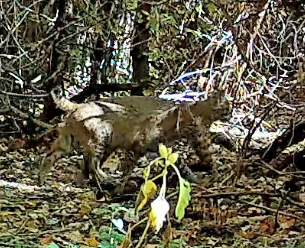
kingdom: Animalia
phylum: Chordata
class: Mammalia
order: Carnivora
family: Felidae
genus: Lynx
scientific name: Lynx rufus
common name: Bobcat
